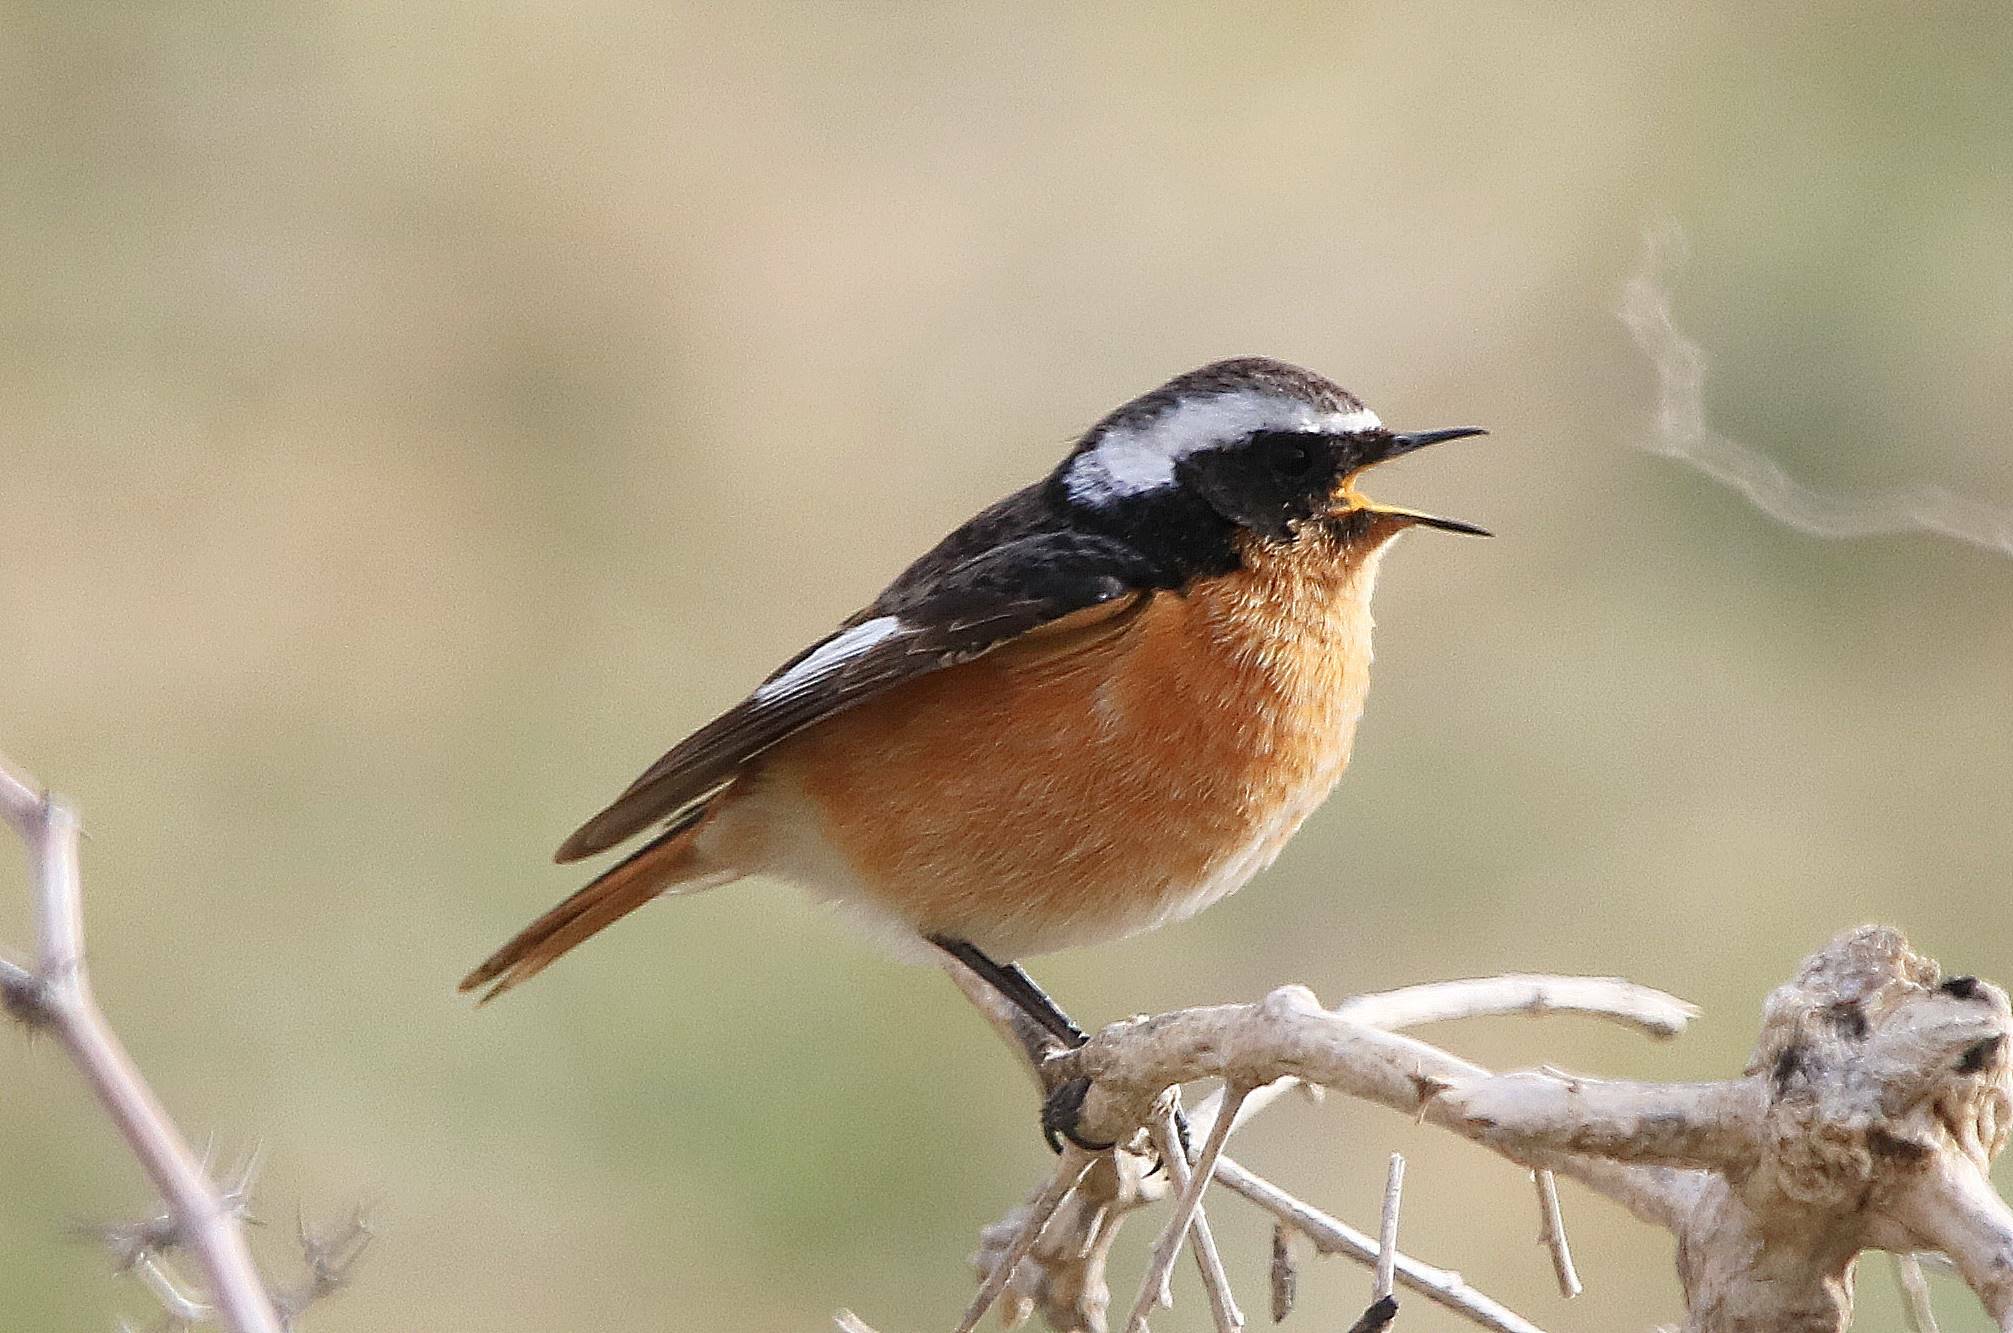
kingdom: Animalia
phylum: Chordata
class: Aves
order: Passeriformes
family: Muscicapidae
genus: Phoenicurus
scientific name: Phoenicurus moussieri
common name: Moussier's redstart
